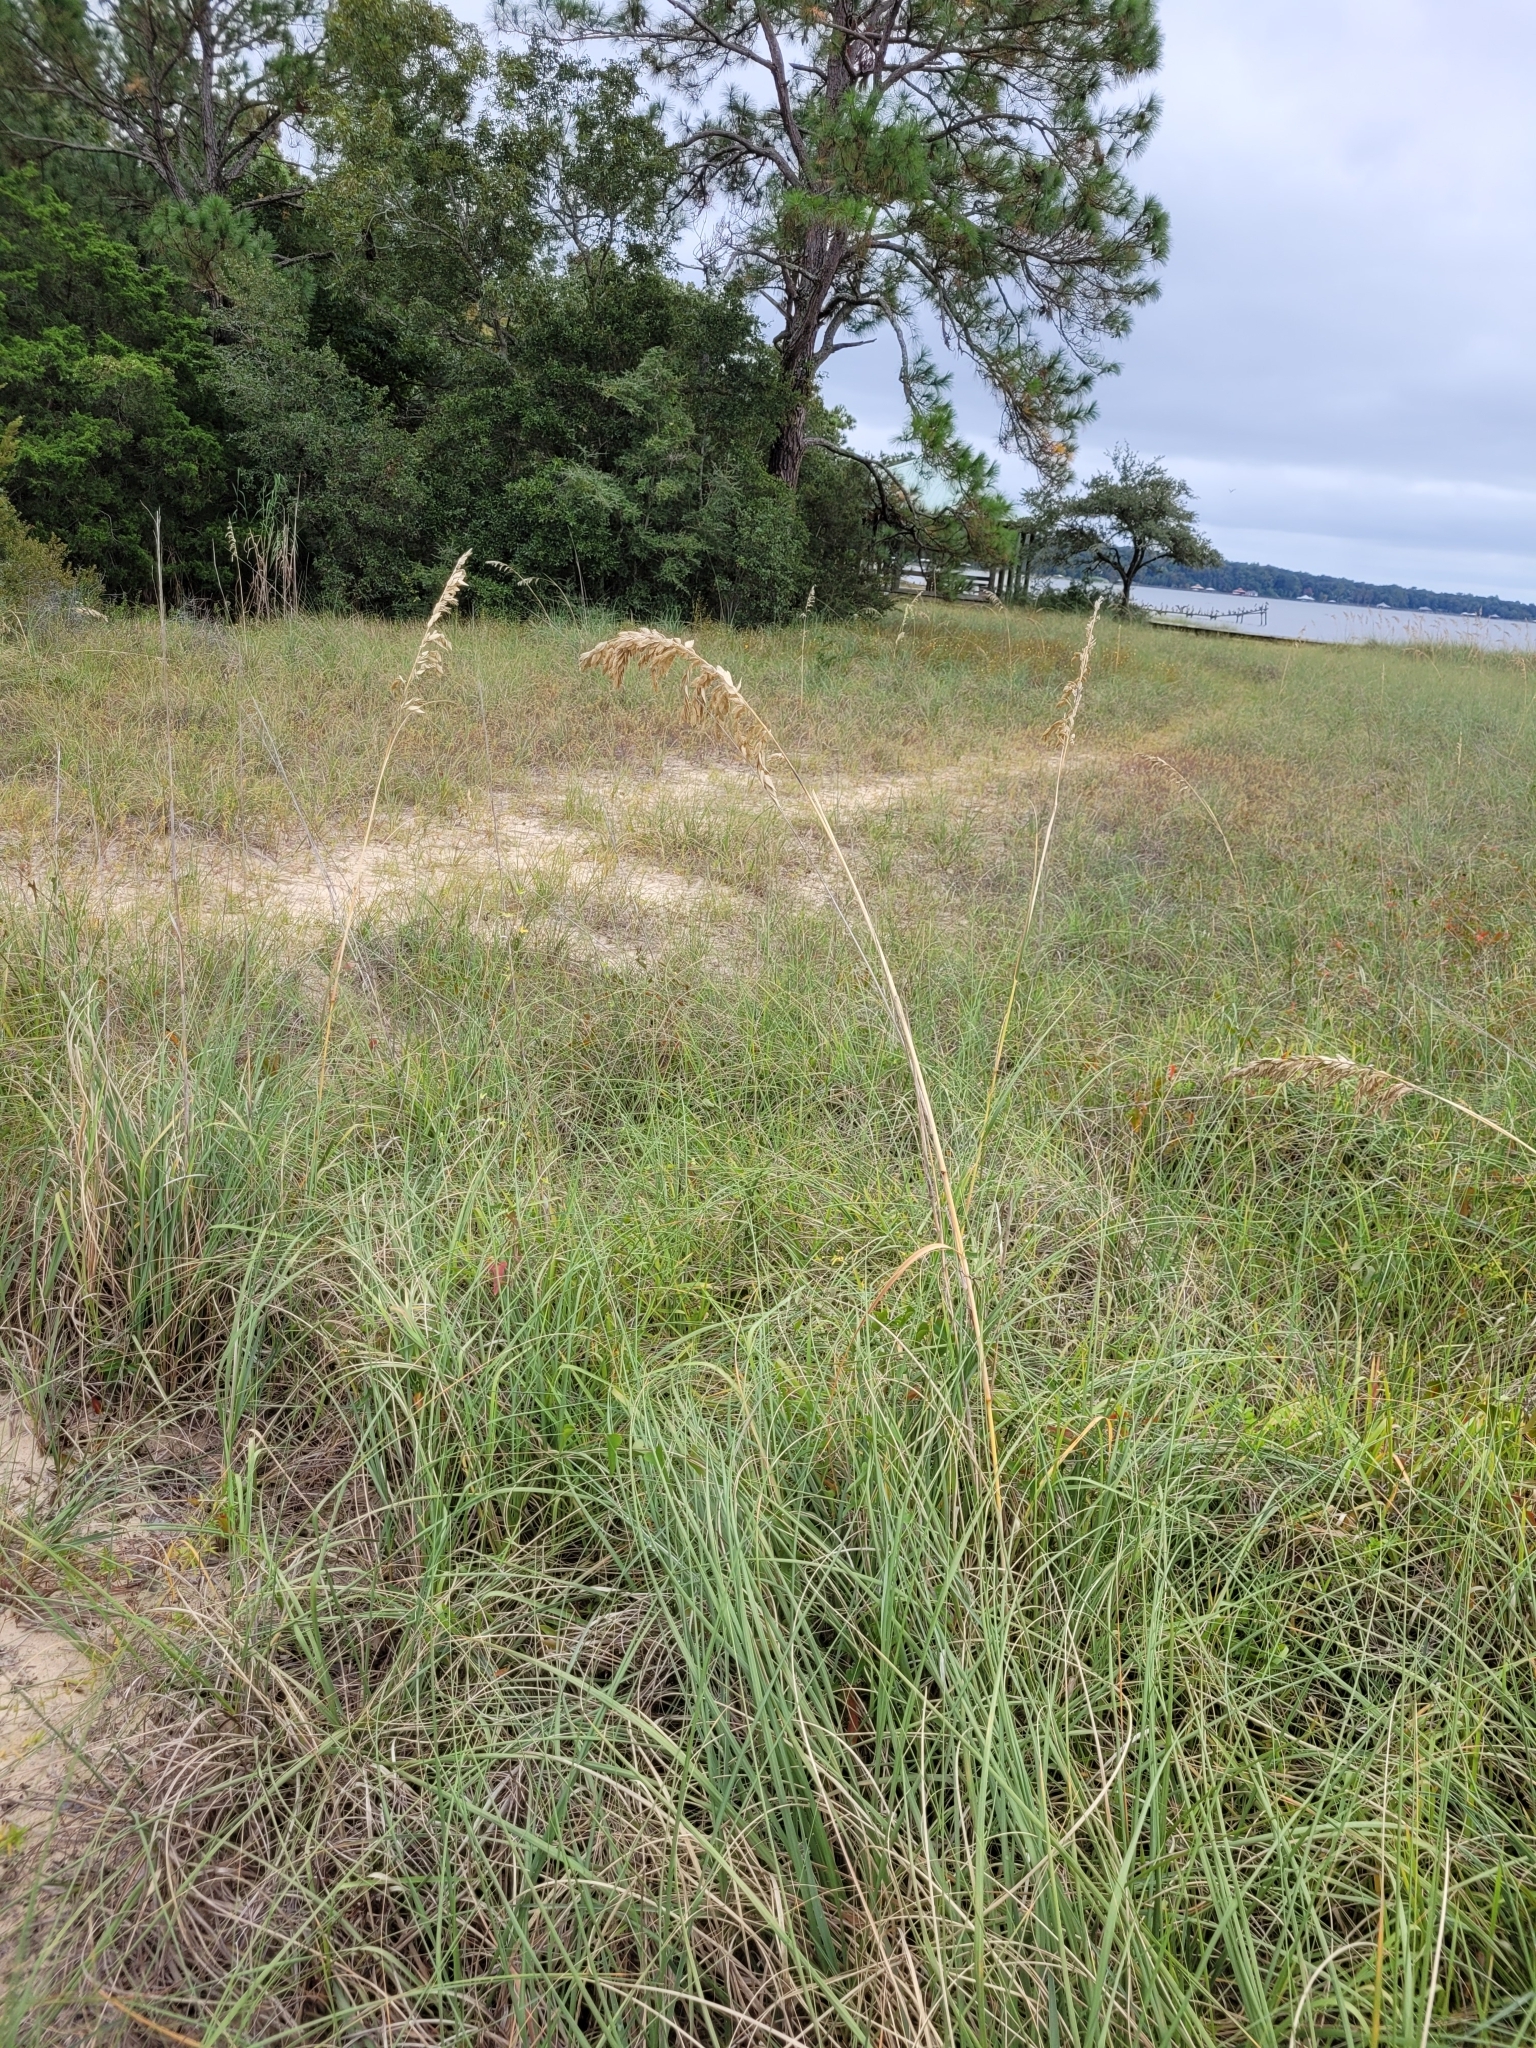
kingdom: Plantae
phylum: Tracheophyta
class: Liliopsida
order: Poales
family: Poaceae
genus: Uniola
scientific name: Uniola paniculata
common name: Seaside-oats
